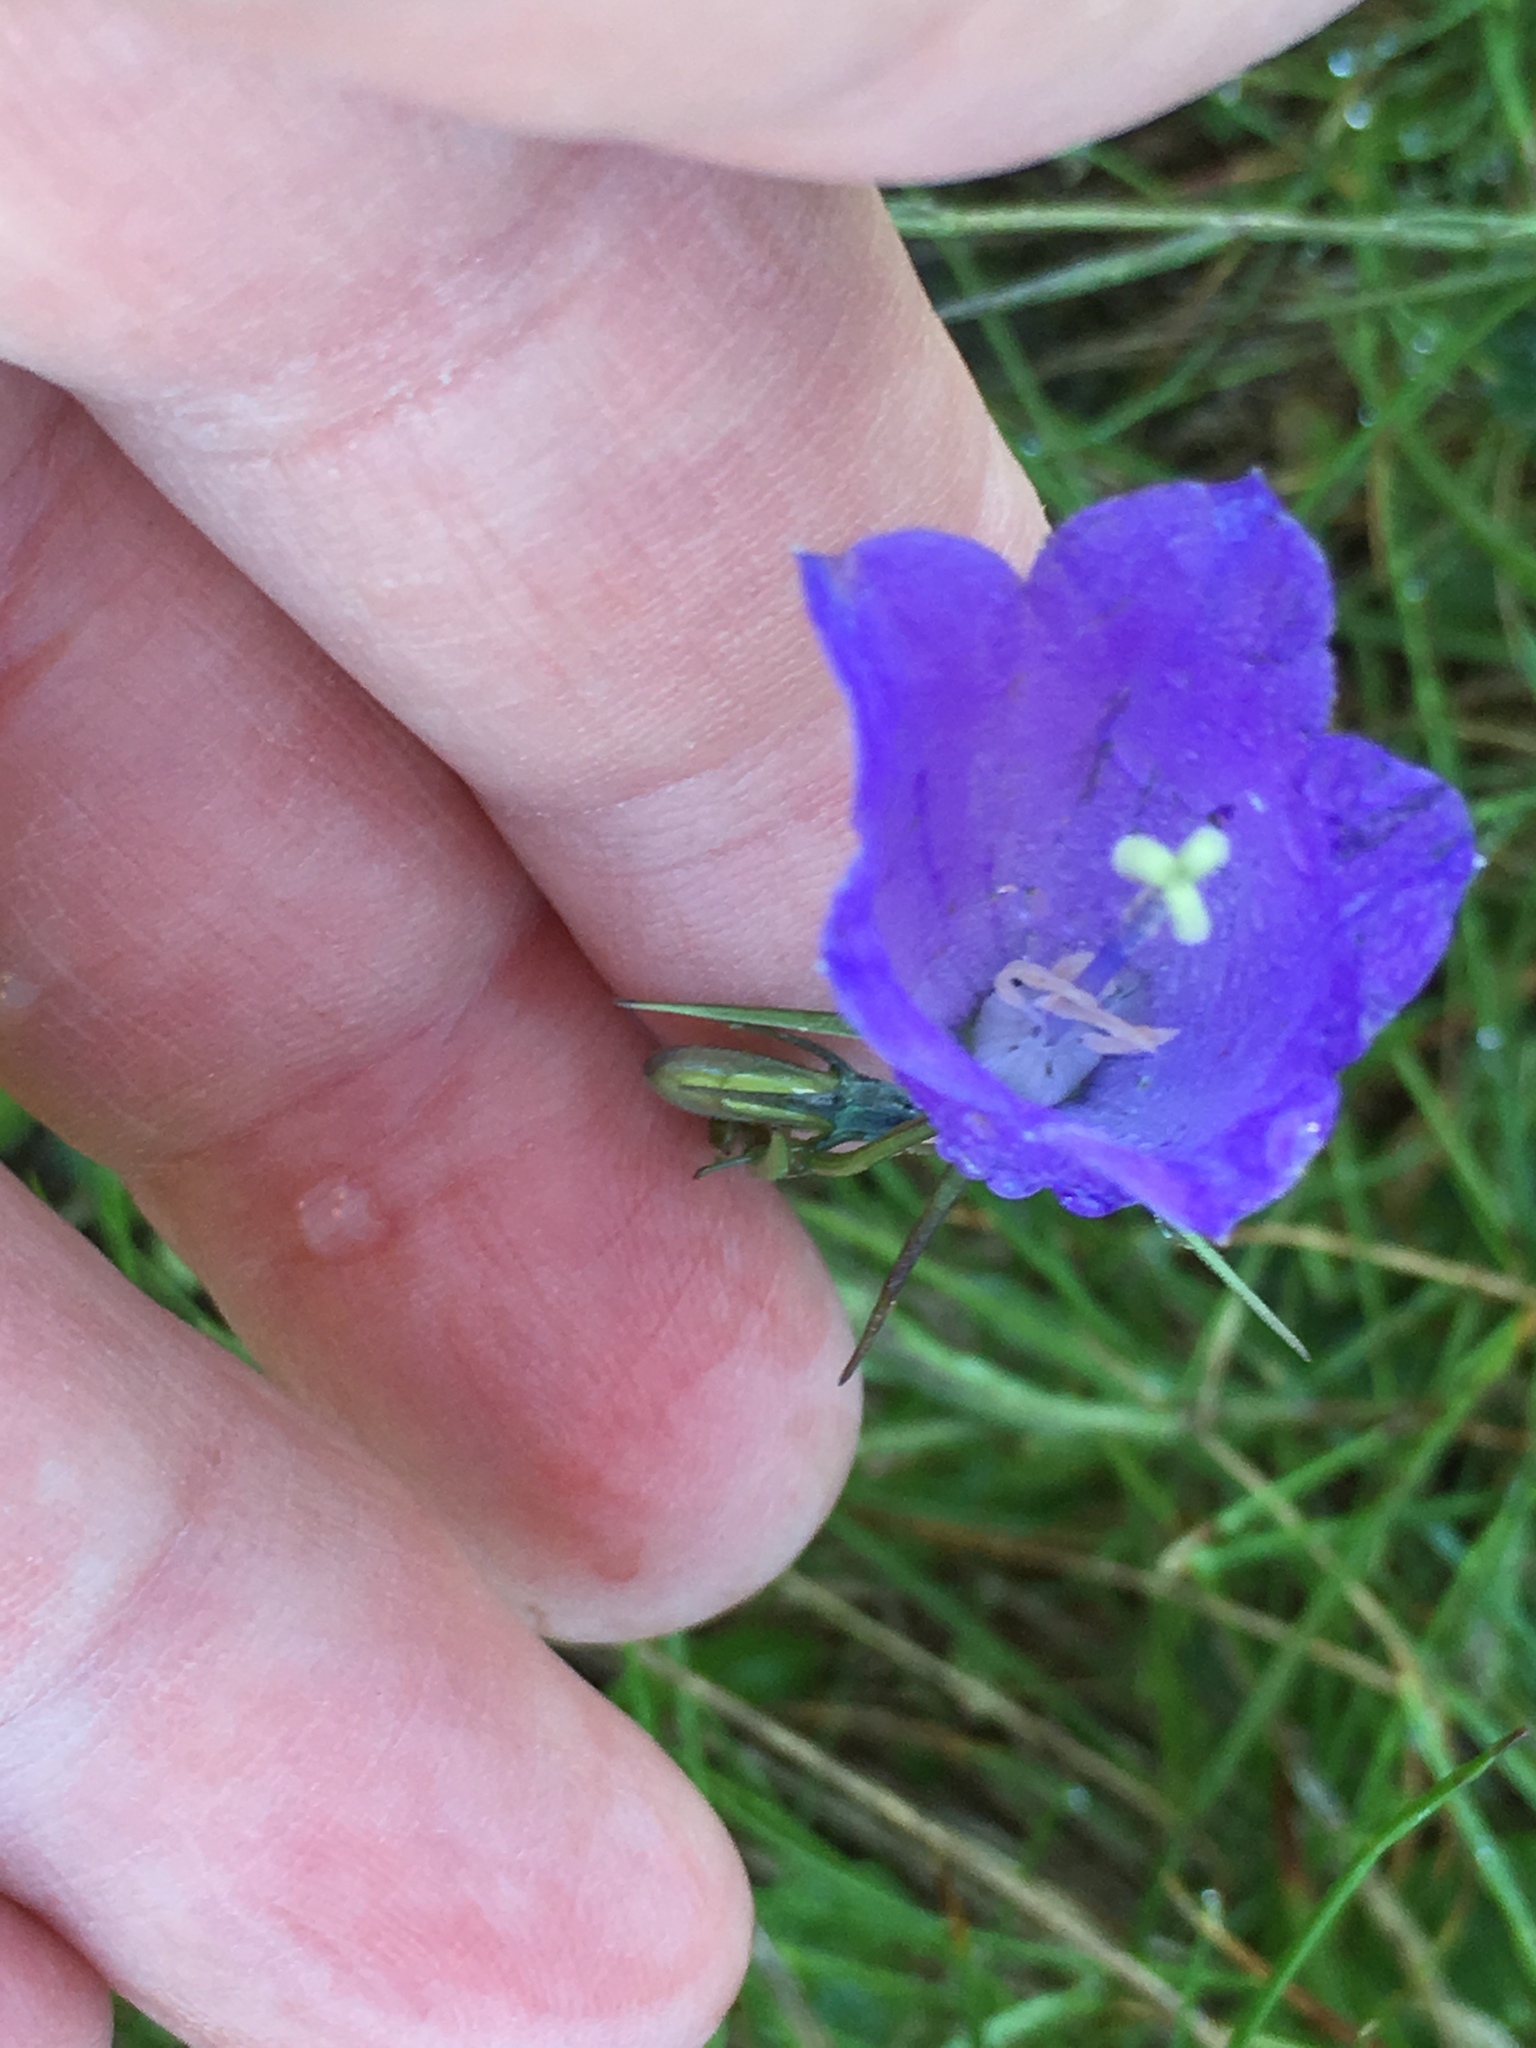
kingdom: Plantae
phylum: Tracheophyta
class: Magnoliopsida
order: Asterales
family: Campanulaceae
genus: Campanula
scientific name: Campanula scheuchzeri
